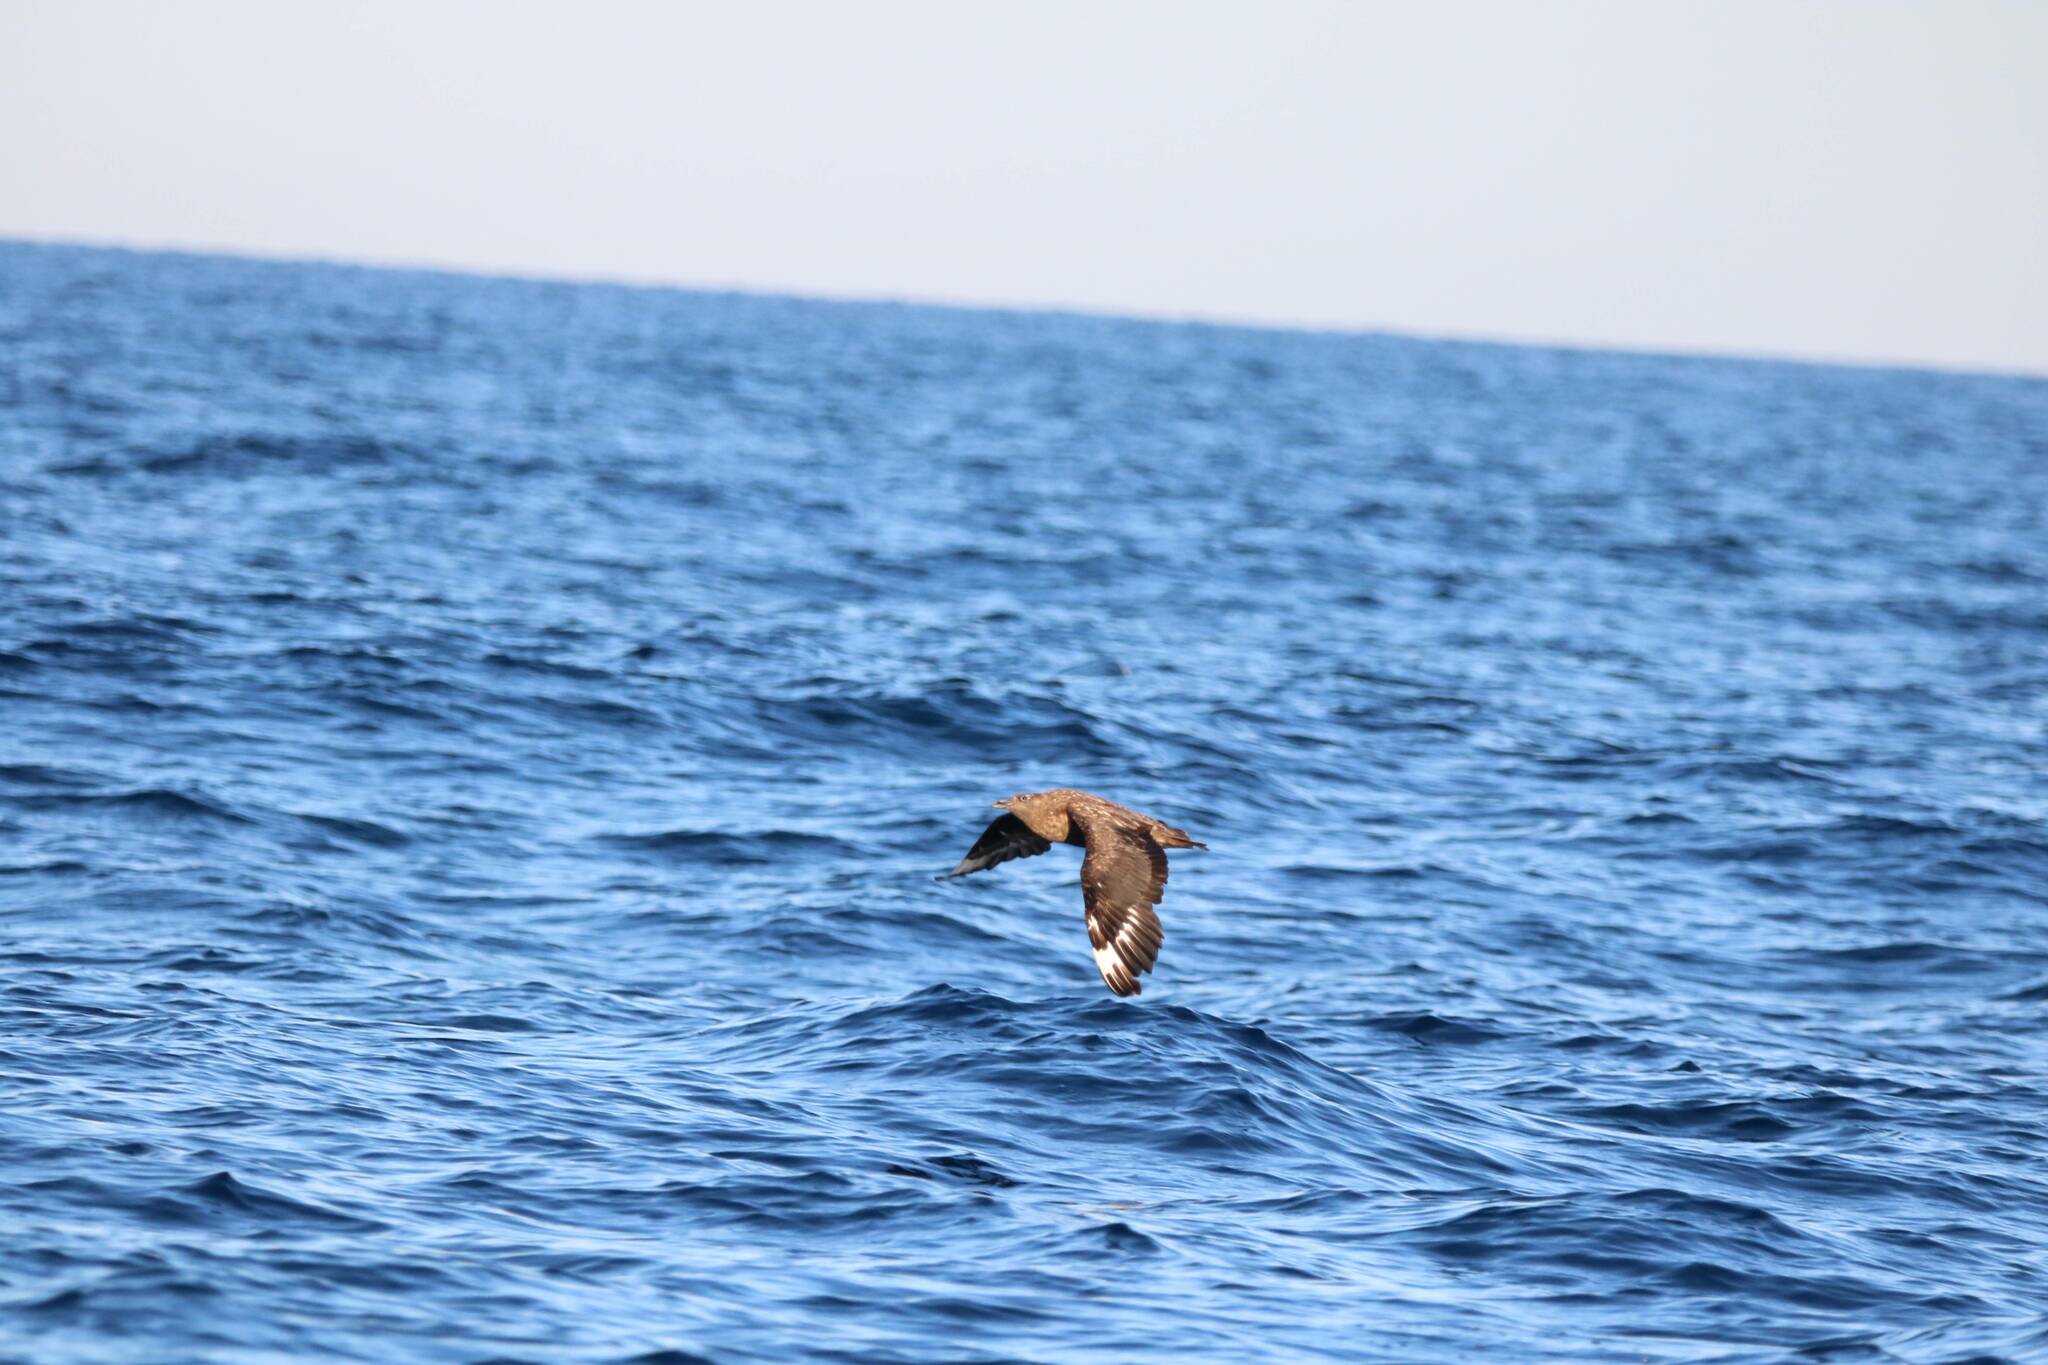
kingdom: Animalia
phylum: Chordata
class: Aves
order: Charadriiformes
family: Stercorariidae
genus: Stercorarius
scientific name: Stercorarius skua
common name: Great skua
